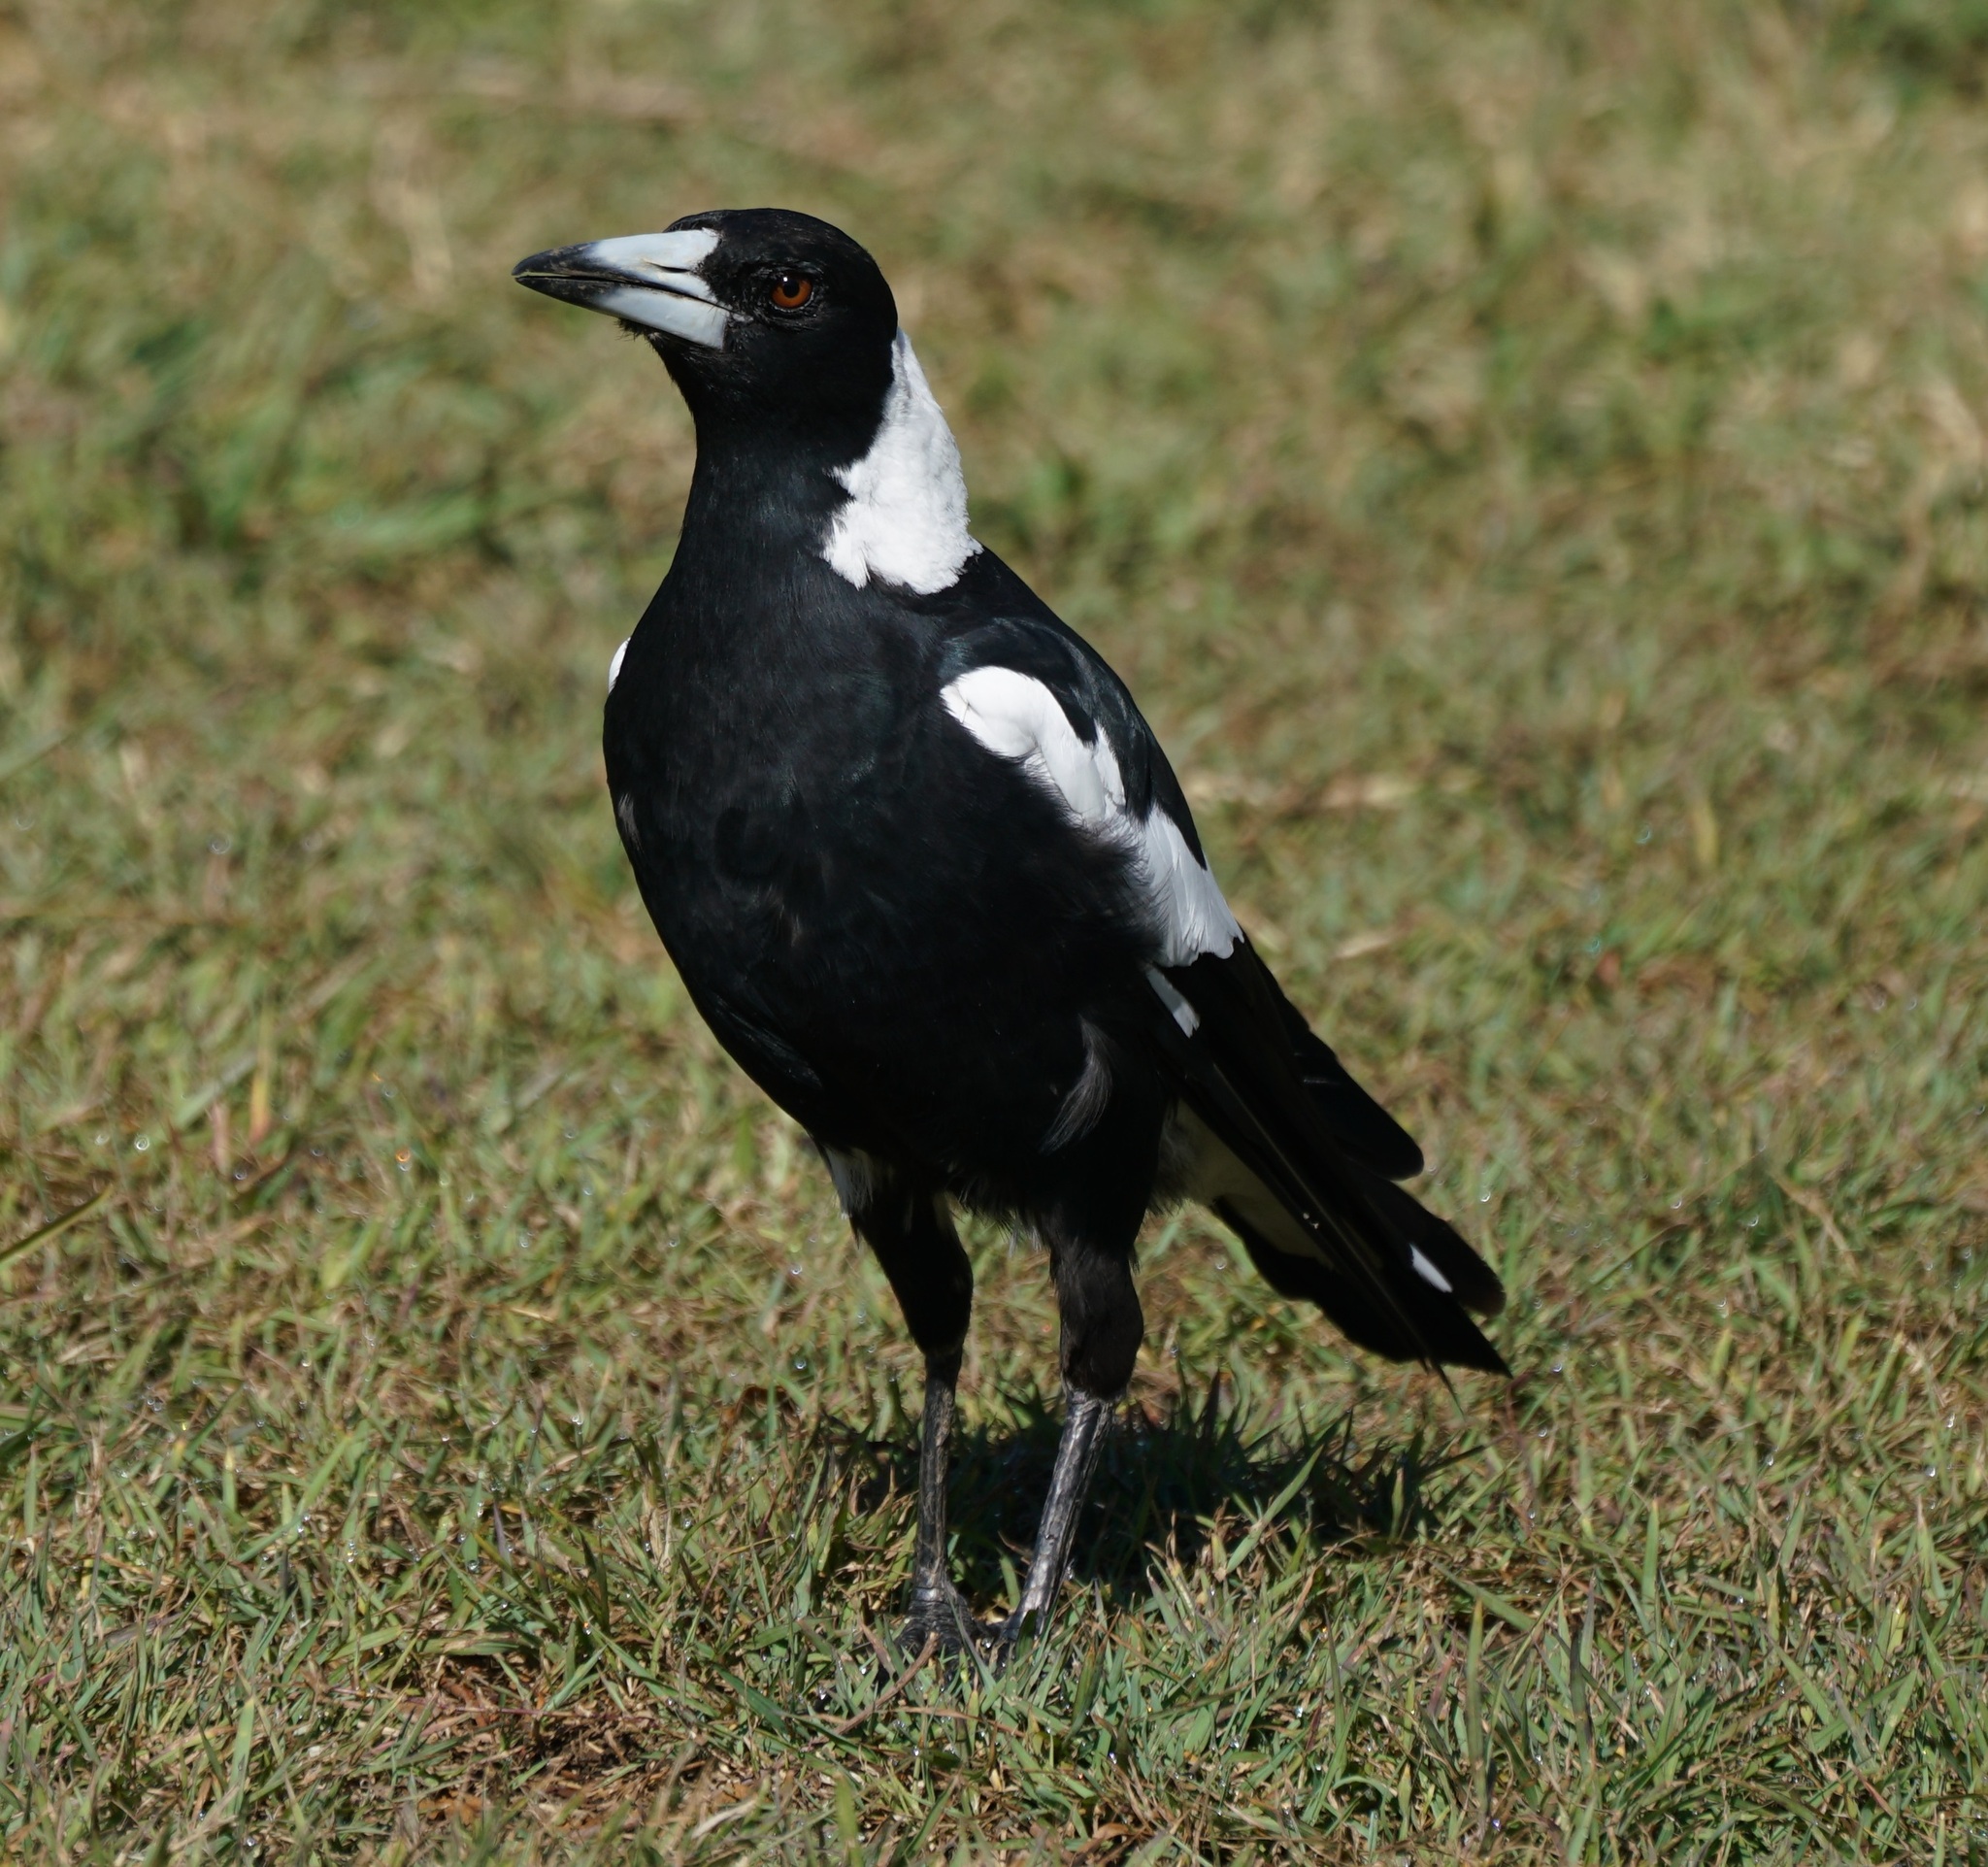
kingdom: Animalia
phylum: Chordata
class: Aves
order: Passeriformes
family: Cracticidae
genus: Gymnorhina
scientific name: Gymnorhina tibicen
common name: Australian magpie
